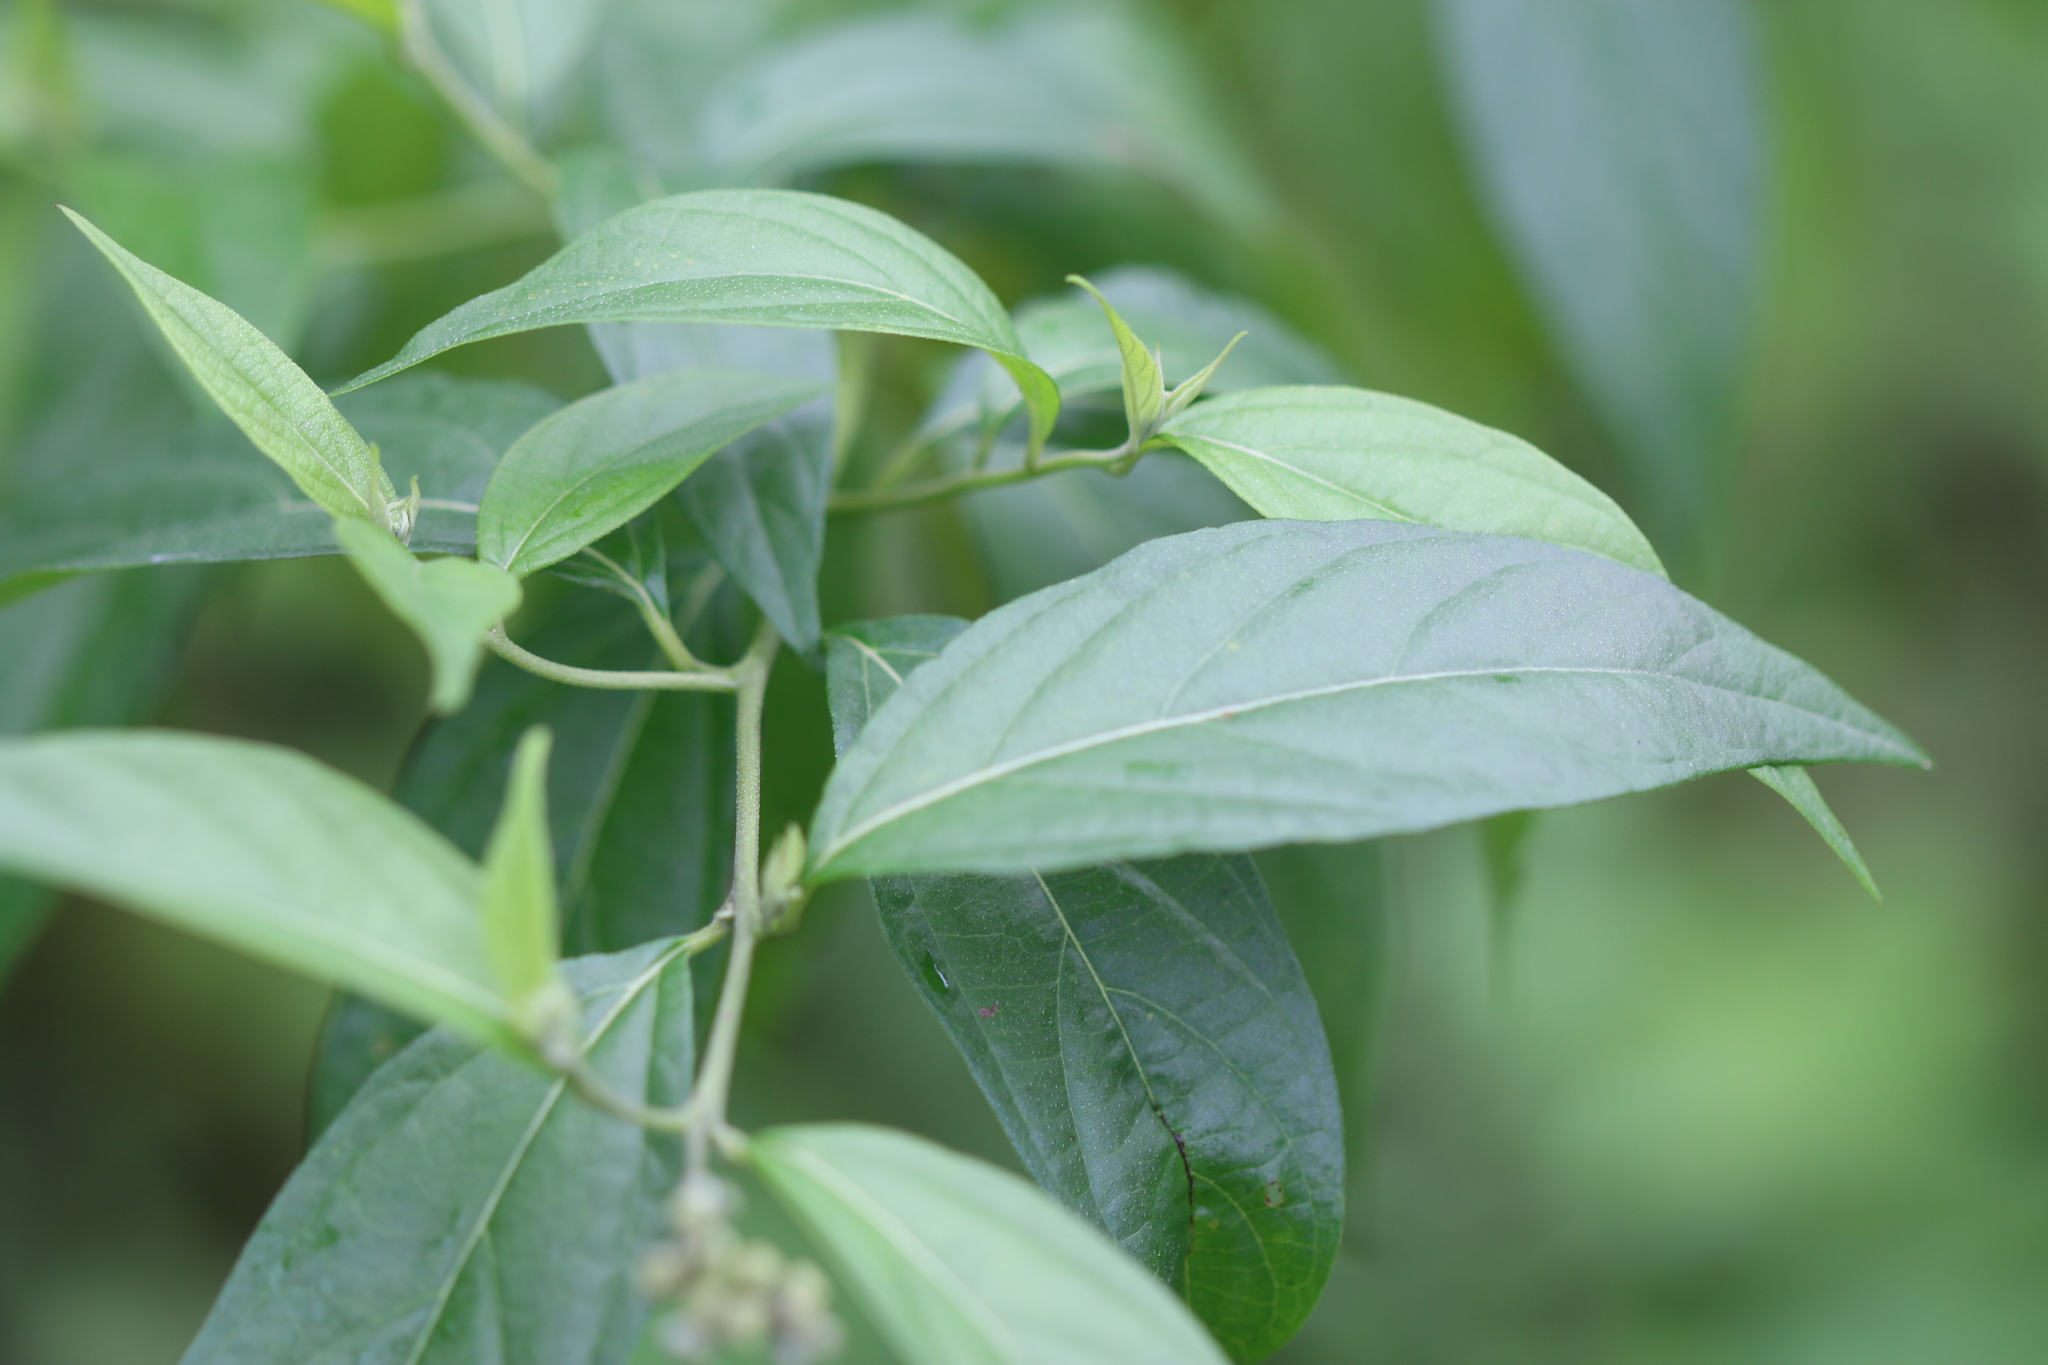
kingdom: Plantae
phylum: Tracheophyta
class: Magnoliopsida
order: Boraginales
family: Cordiaceae
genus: Varronia
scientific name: Varronia spinescens
